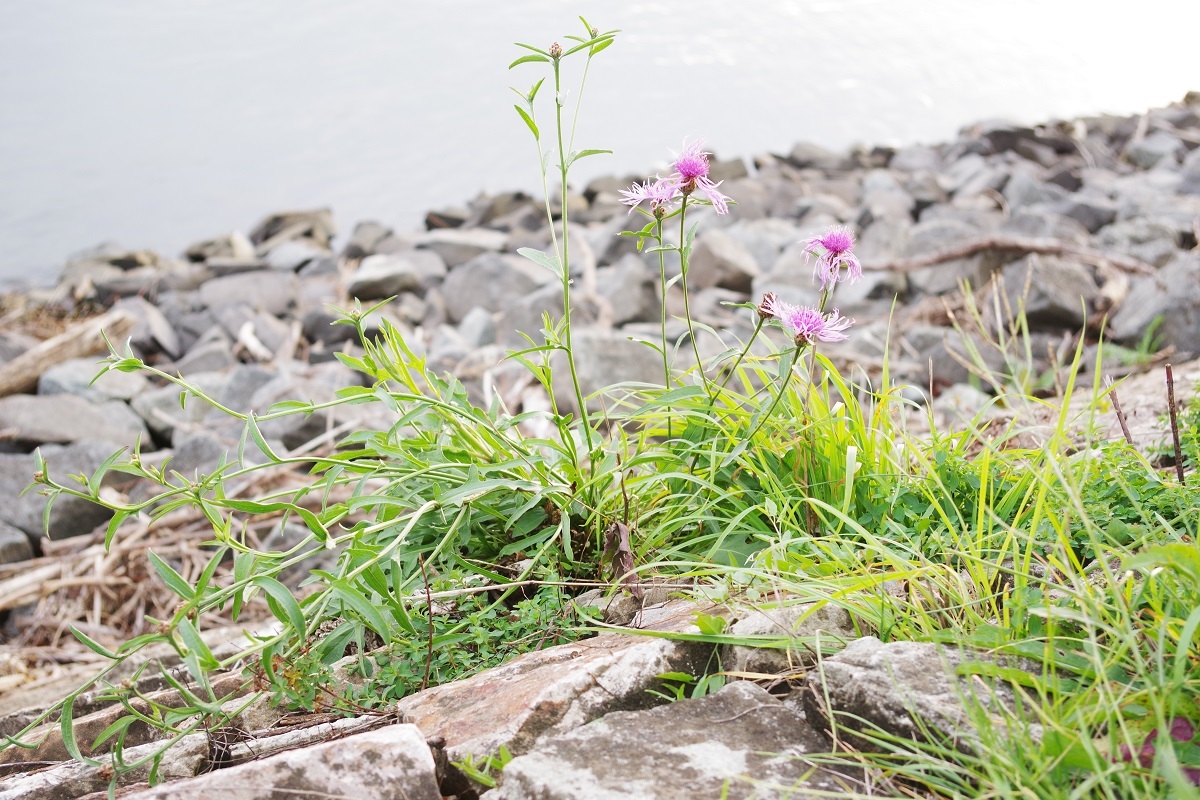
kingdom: Plantae
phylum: Tracheophyta
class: Magnoliopsida
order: Asterales
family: Asteraceae
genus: Centaurea
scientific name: Centaurea jacea
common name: Brown knapweed
